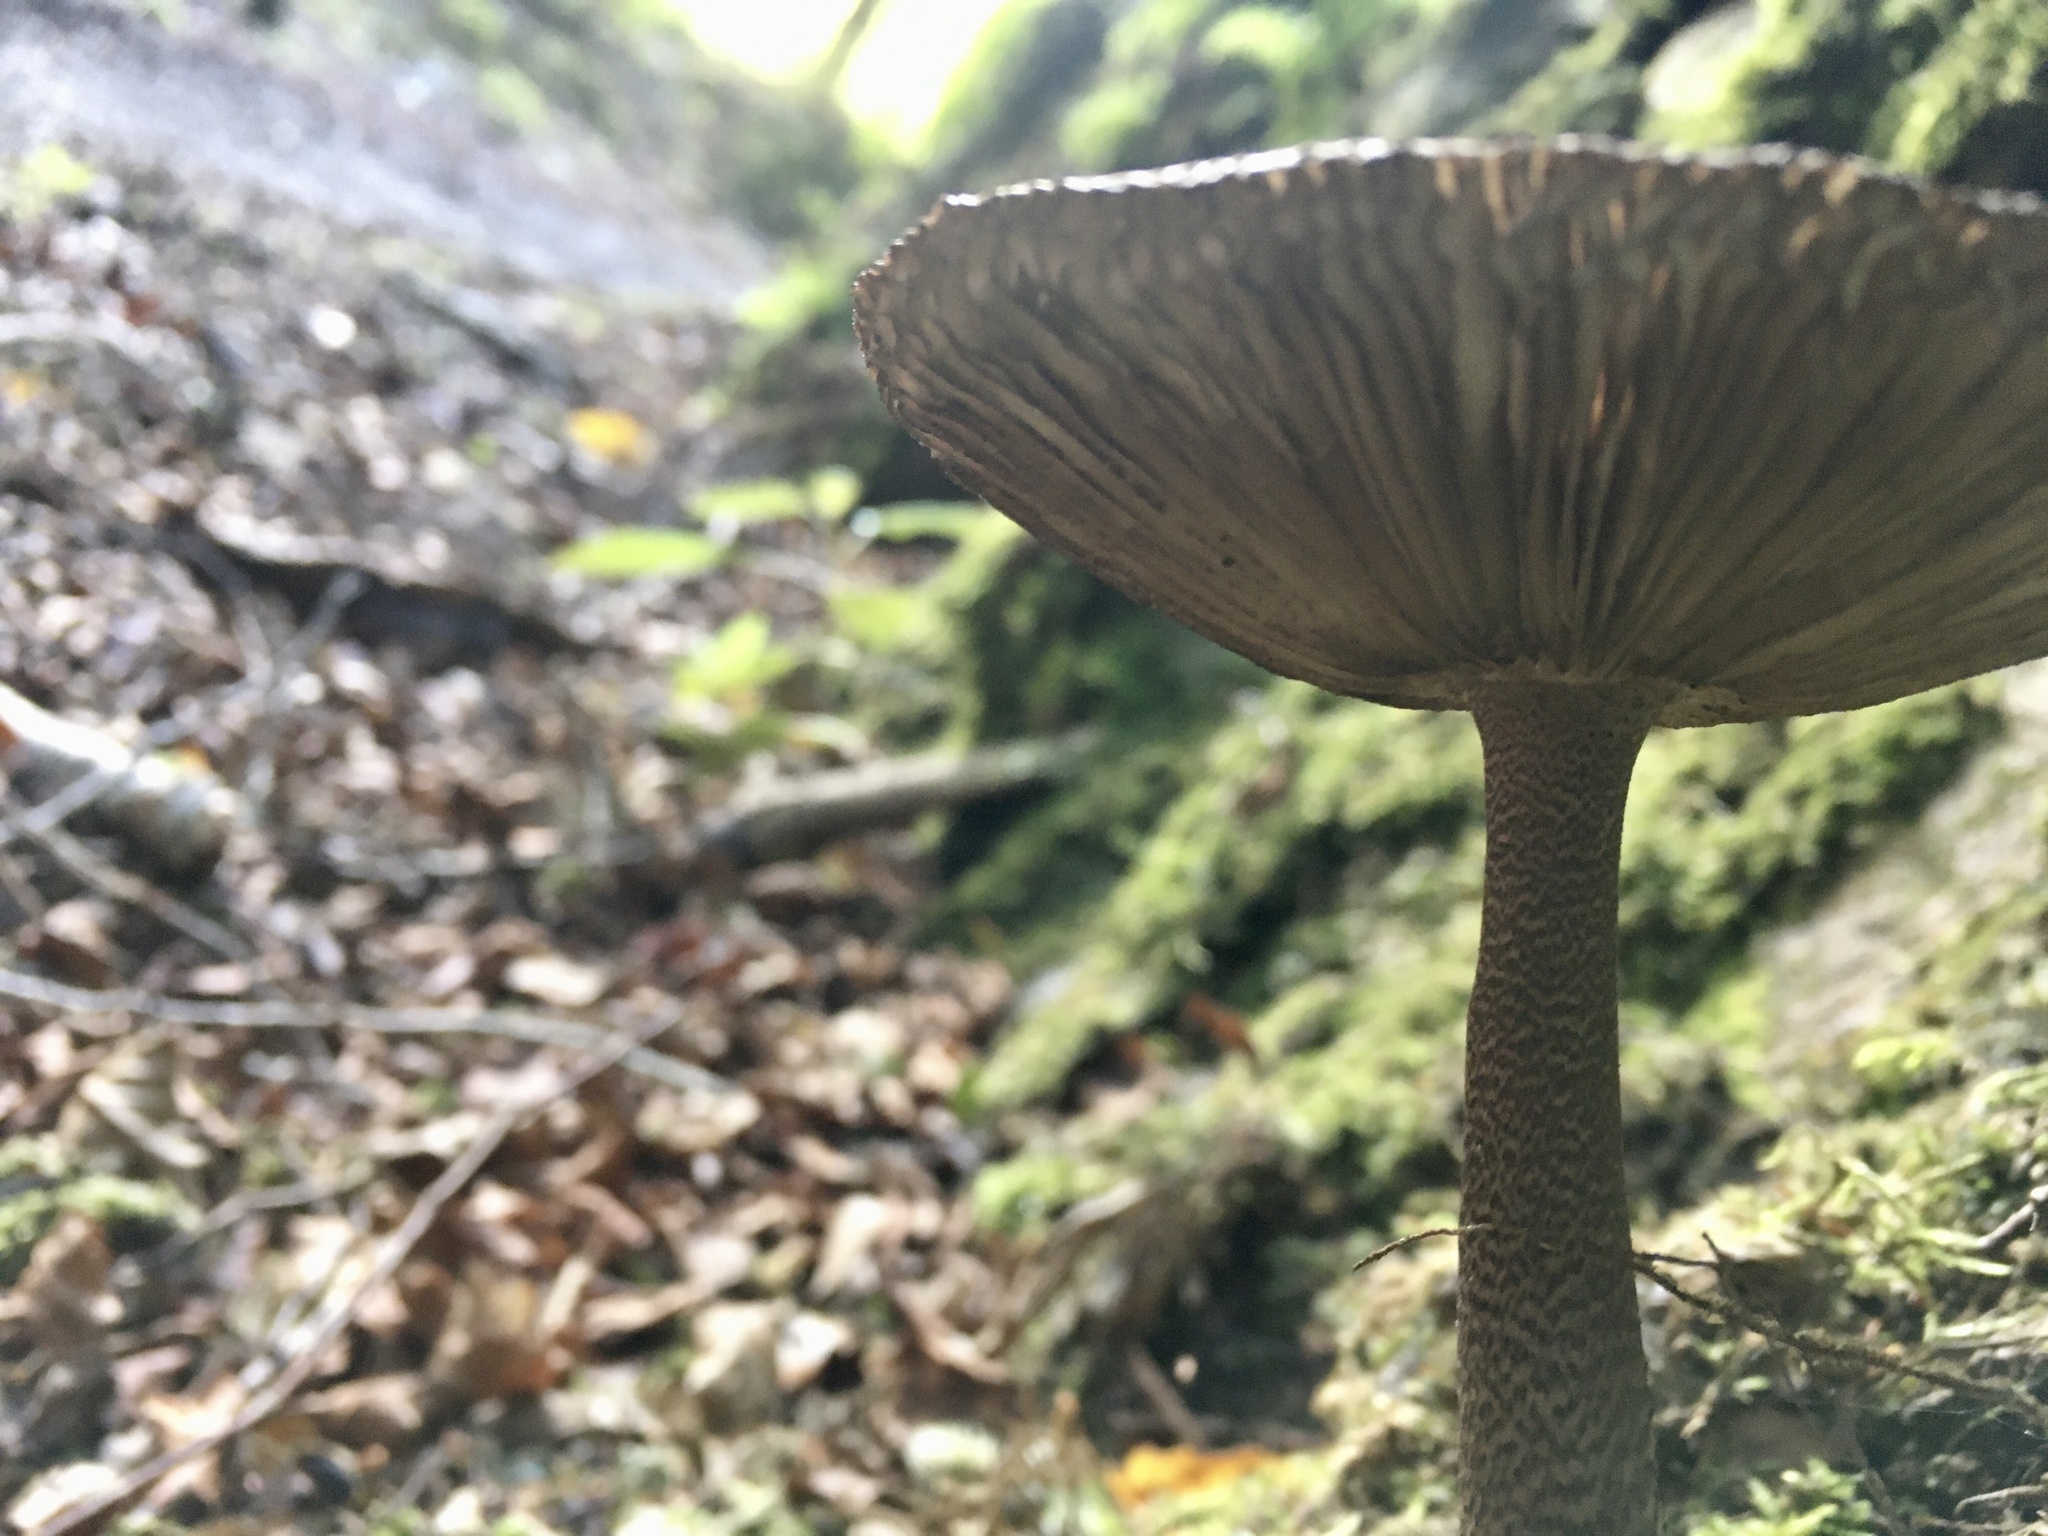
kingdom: Fungi
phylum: Basidiomycota
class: Agaricomycetes
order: Agaricales
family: Amanitaceae
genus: Amanita
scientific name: Amanita pekeoides
